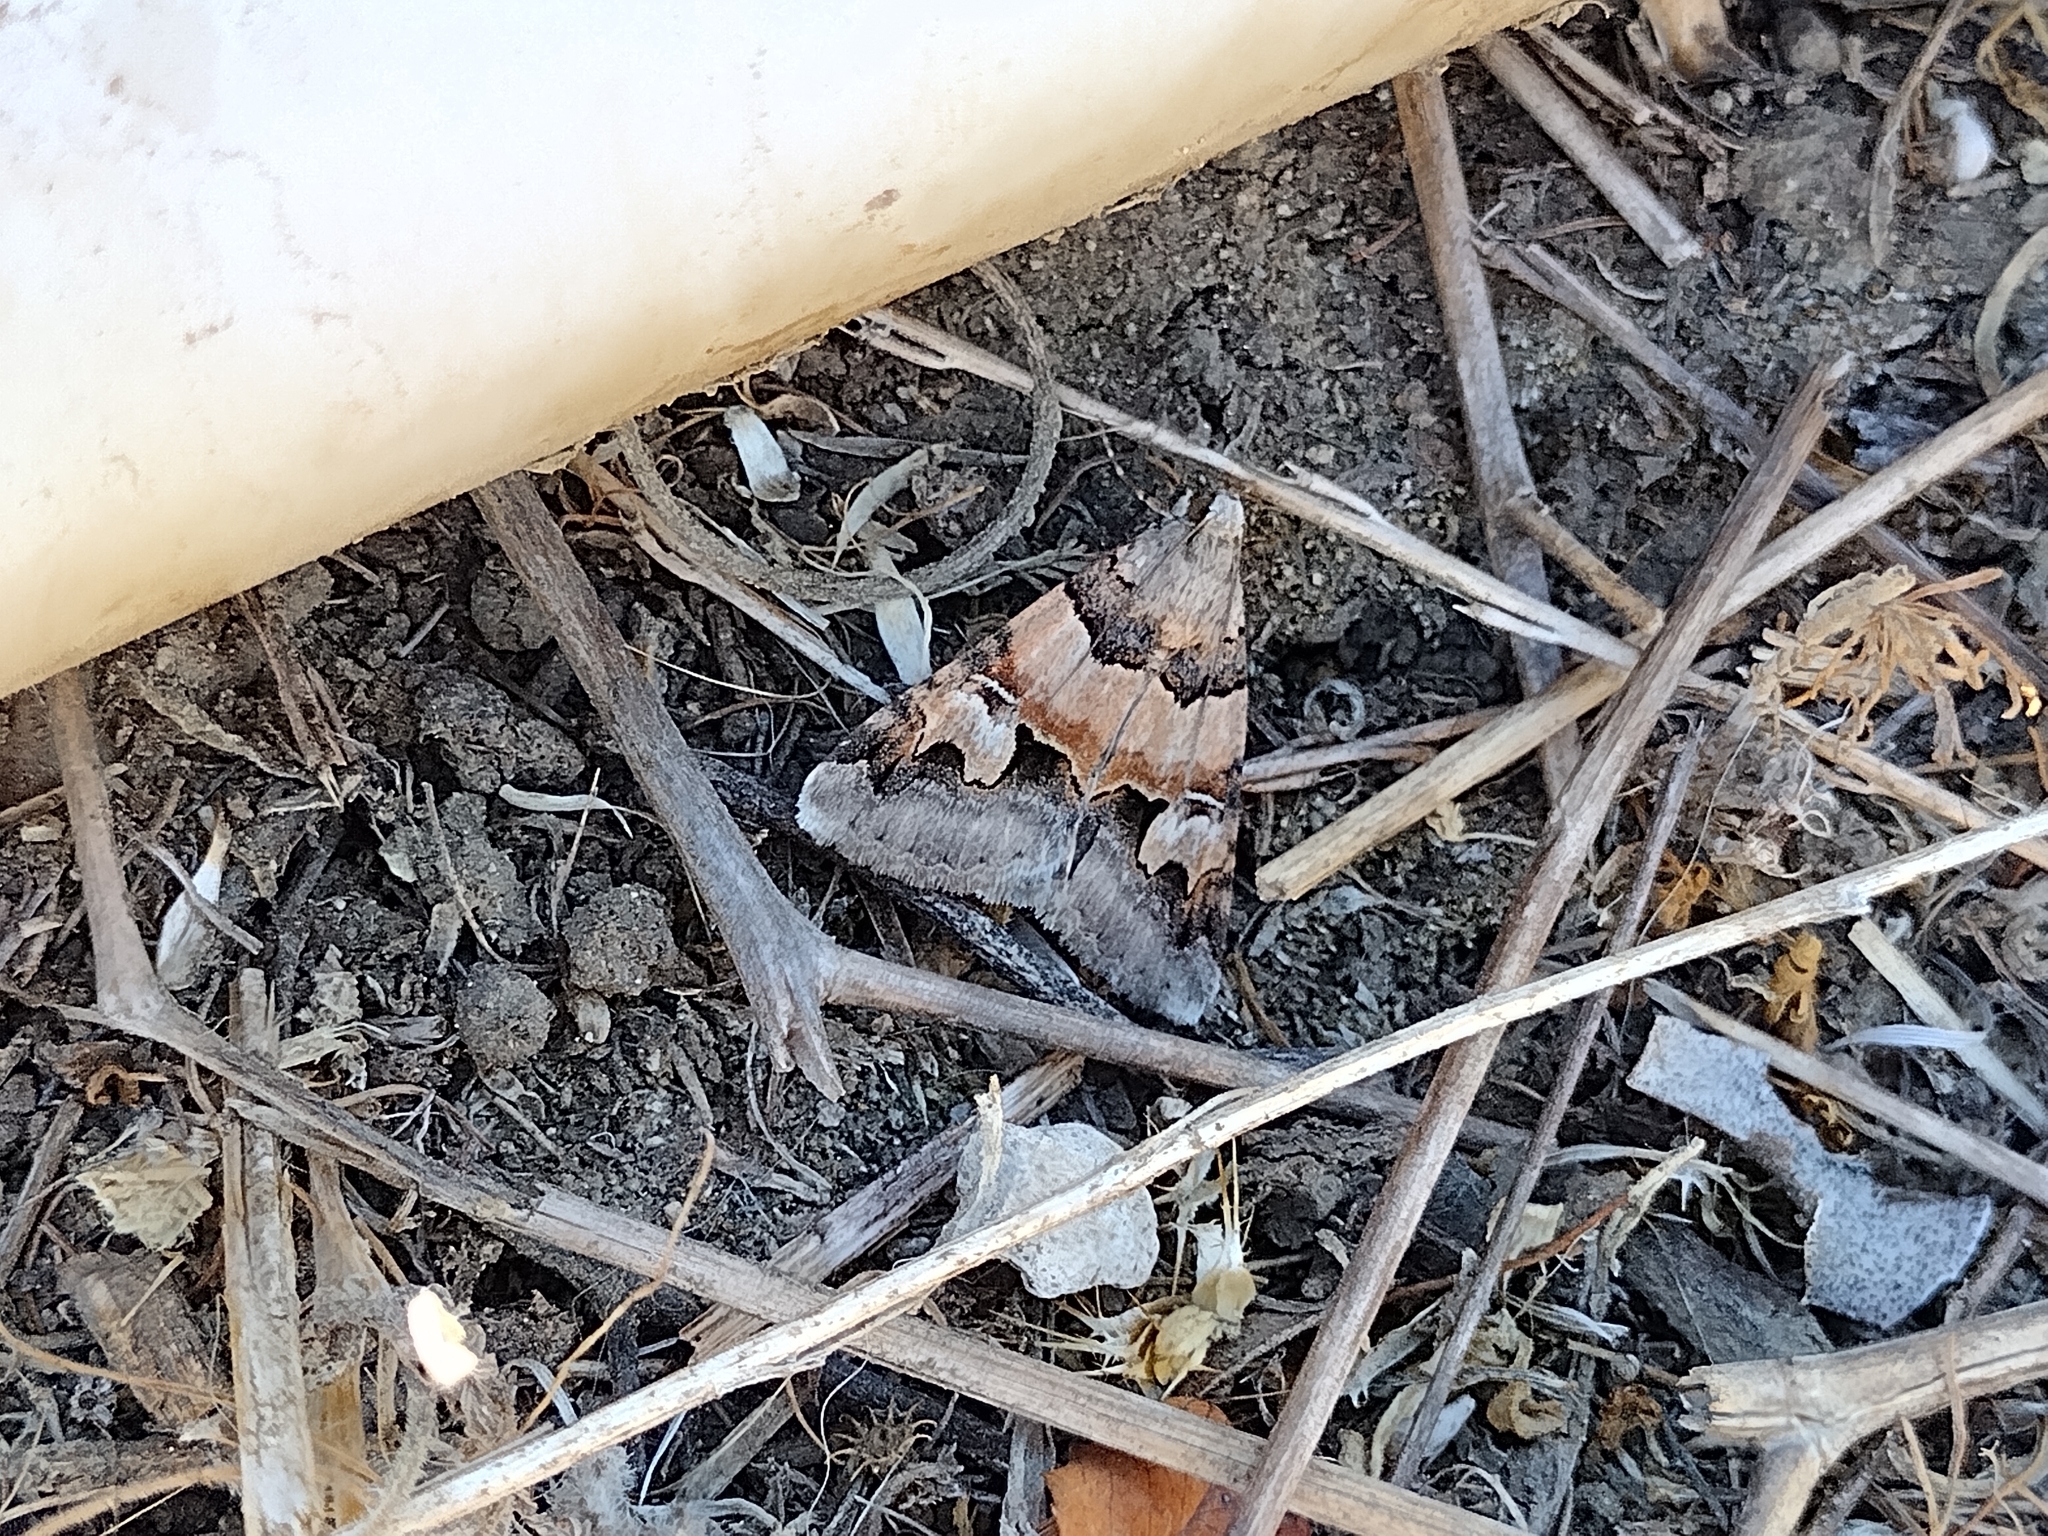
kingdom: Animalia
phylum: Arthropoda
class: Insecta
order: Lepidoptera
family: Erebidae
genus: Drasteria
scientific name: Drasteria fumosa
